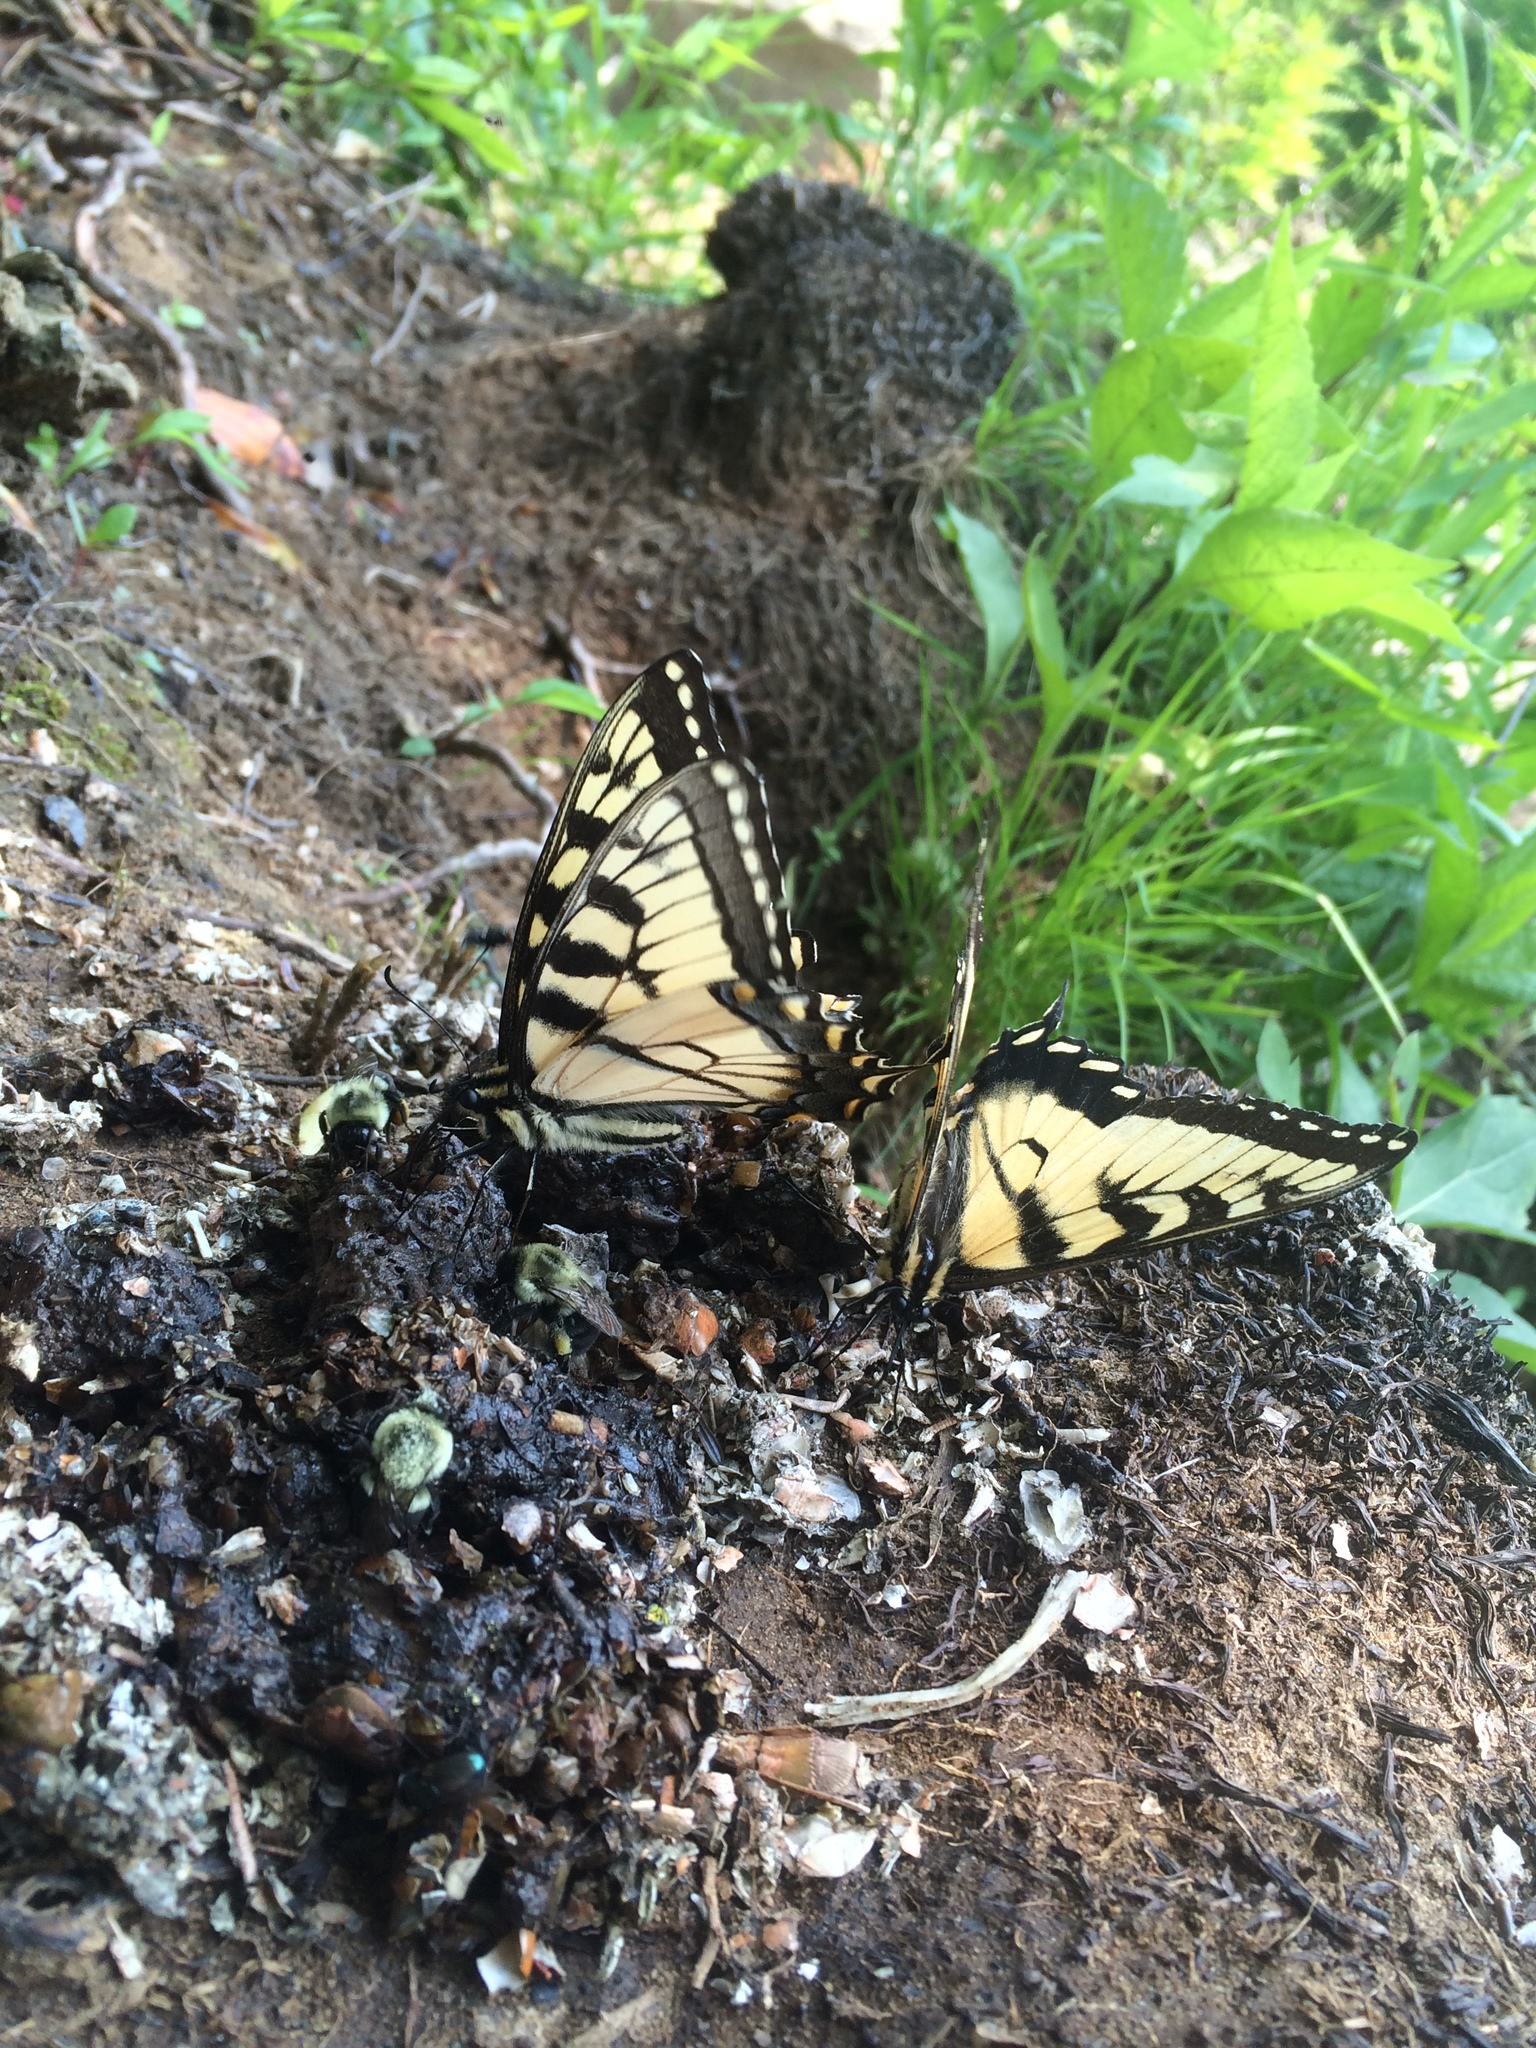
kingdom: Animalia
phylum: Arthropoda
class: Insecta
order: Lepidoptera
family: Papilionidae
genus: Papilio
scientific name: Papilio glaucus
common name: Tiger swallowtail
